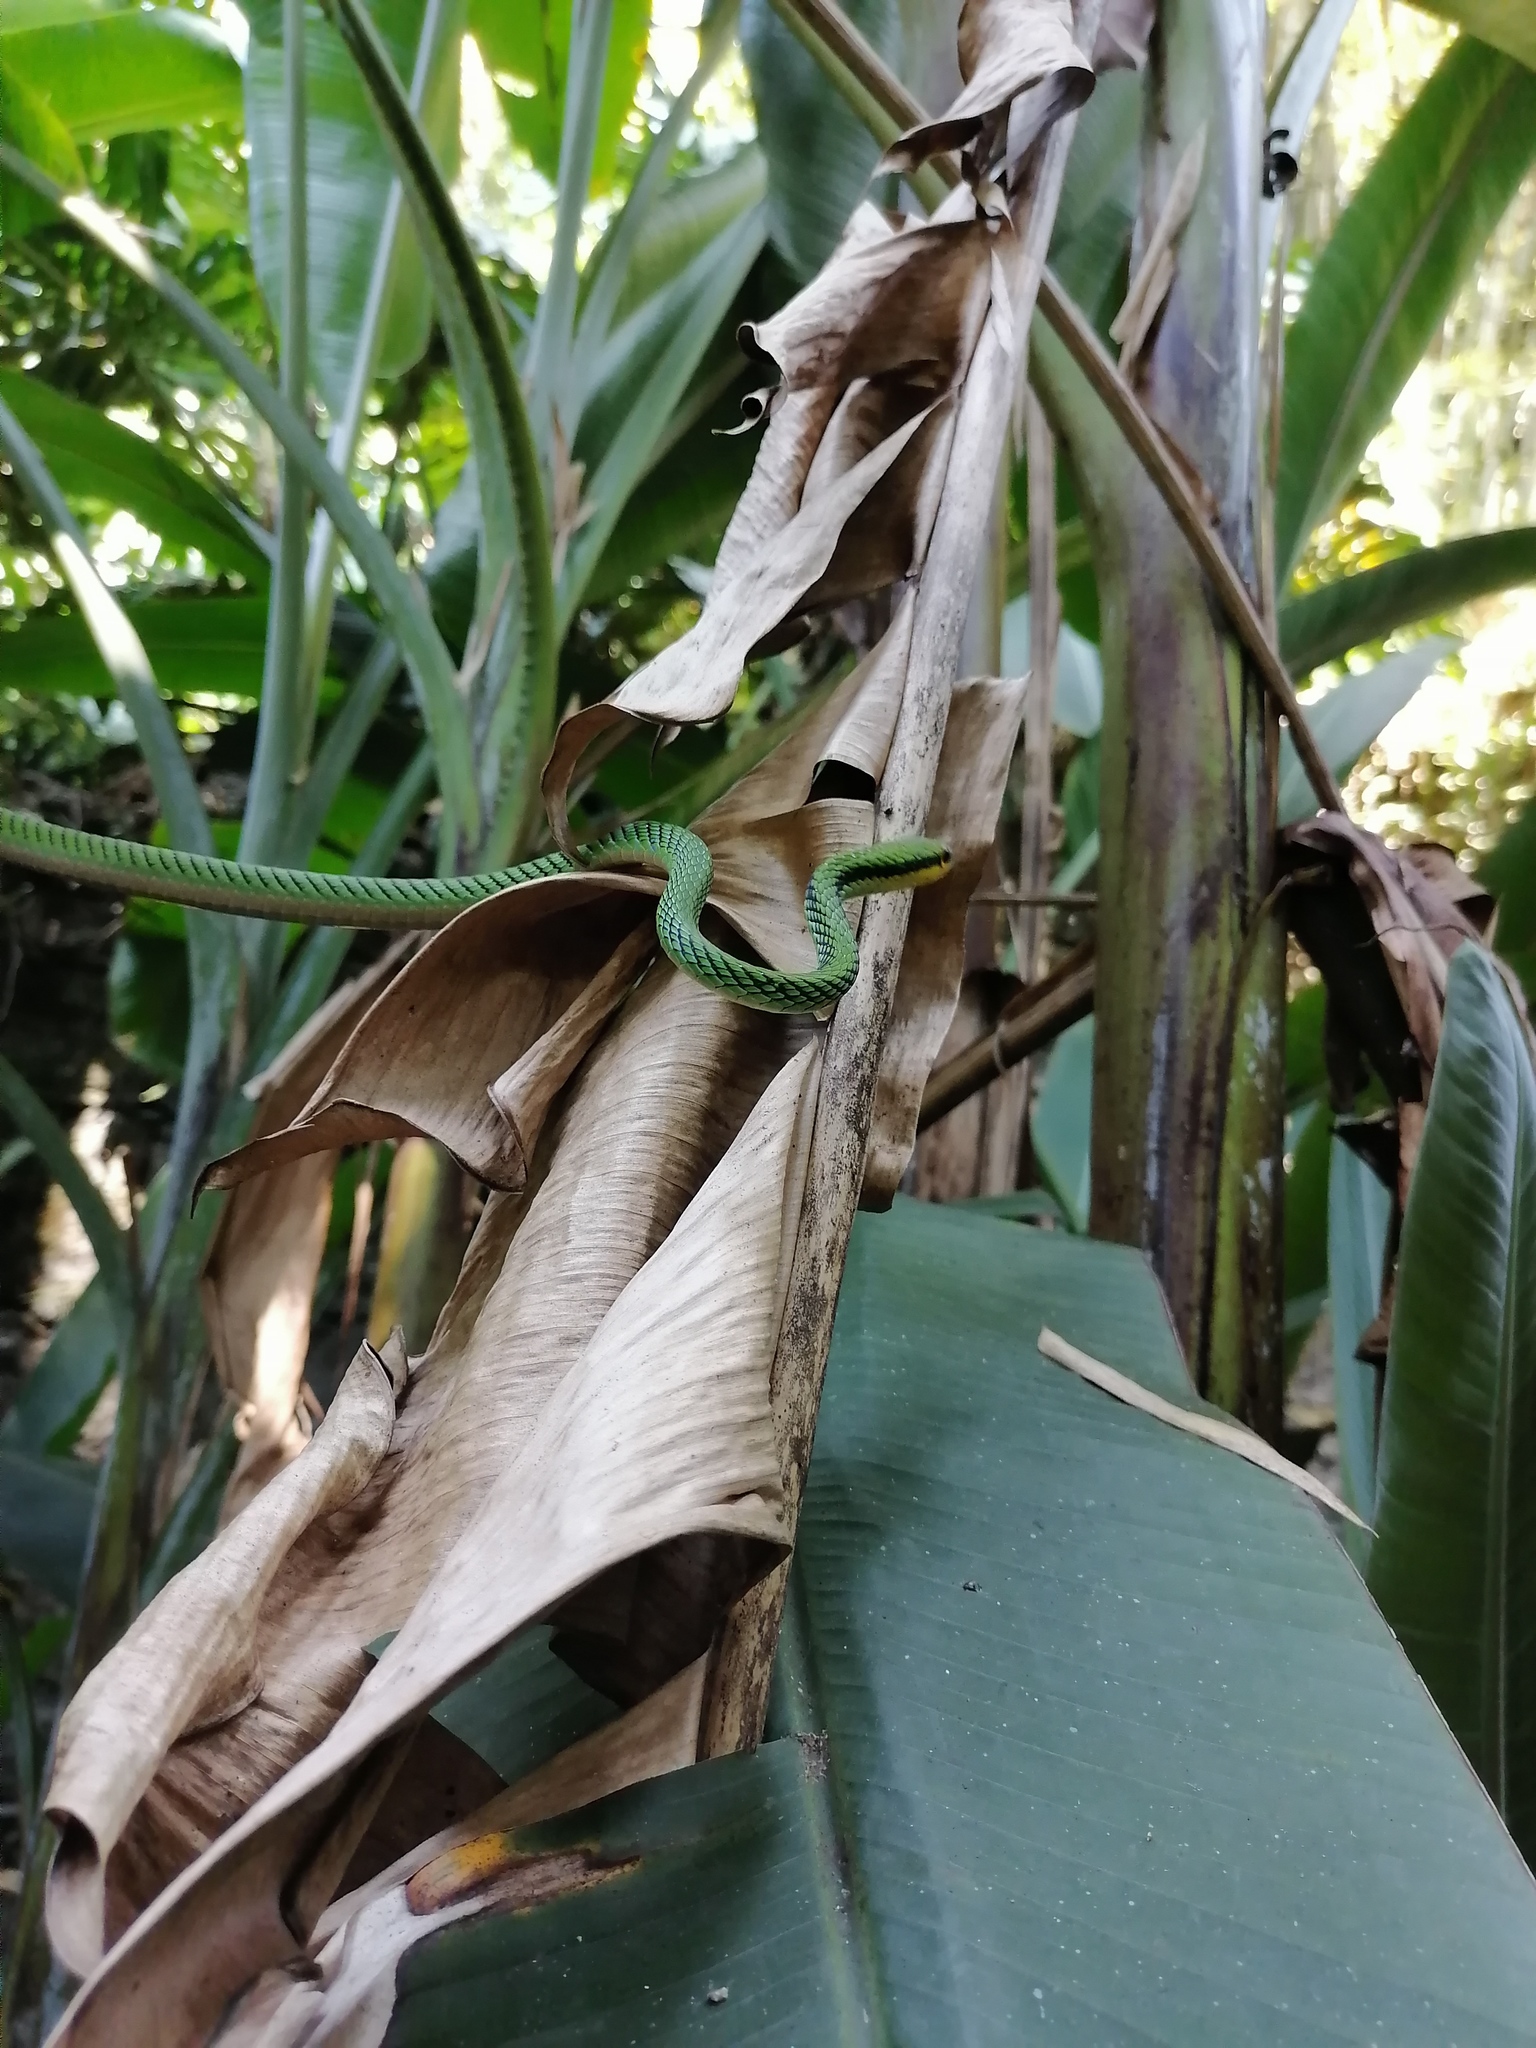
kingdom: Animalia
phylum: Chordata
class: Squamata
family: Colubridae
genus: Leptophis
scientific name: Leptophis mexicanus
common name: Mexican parrot snake
